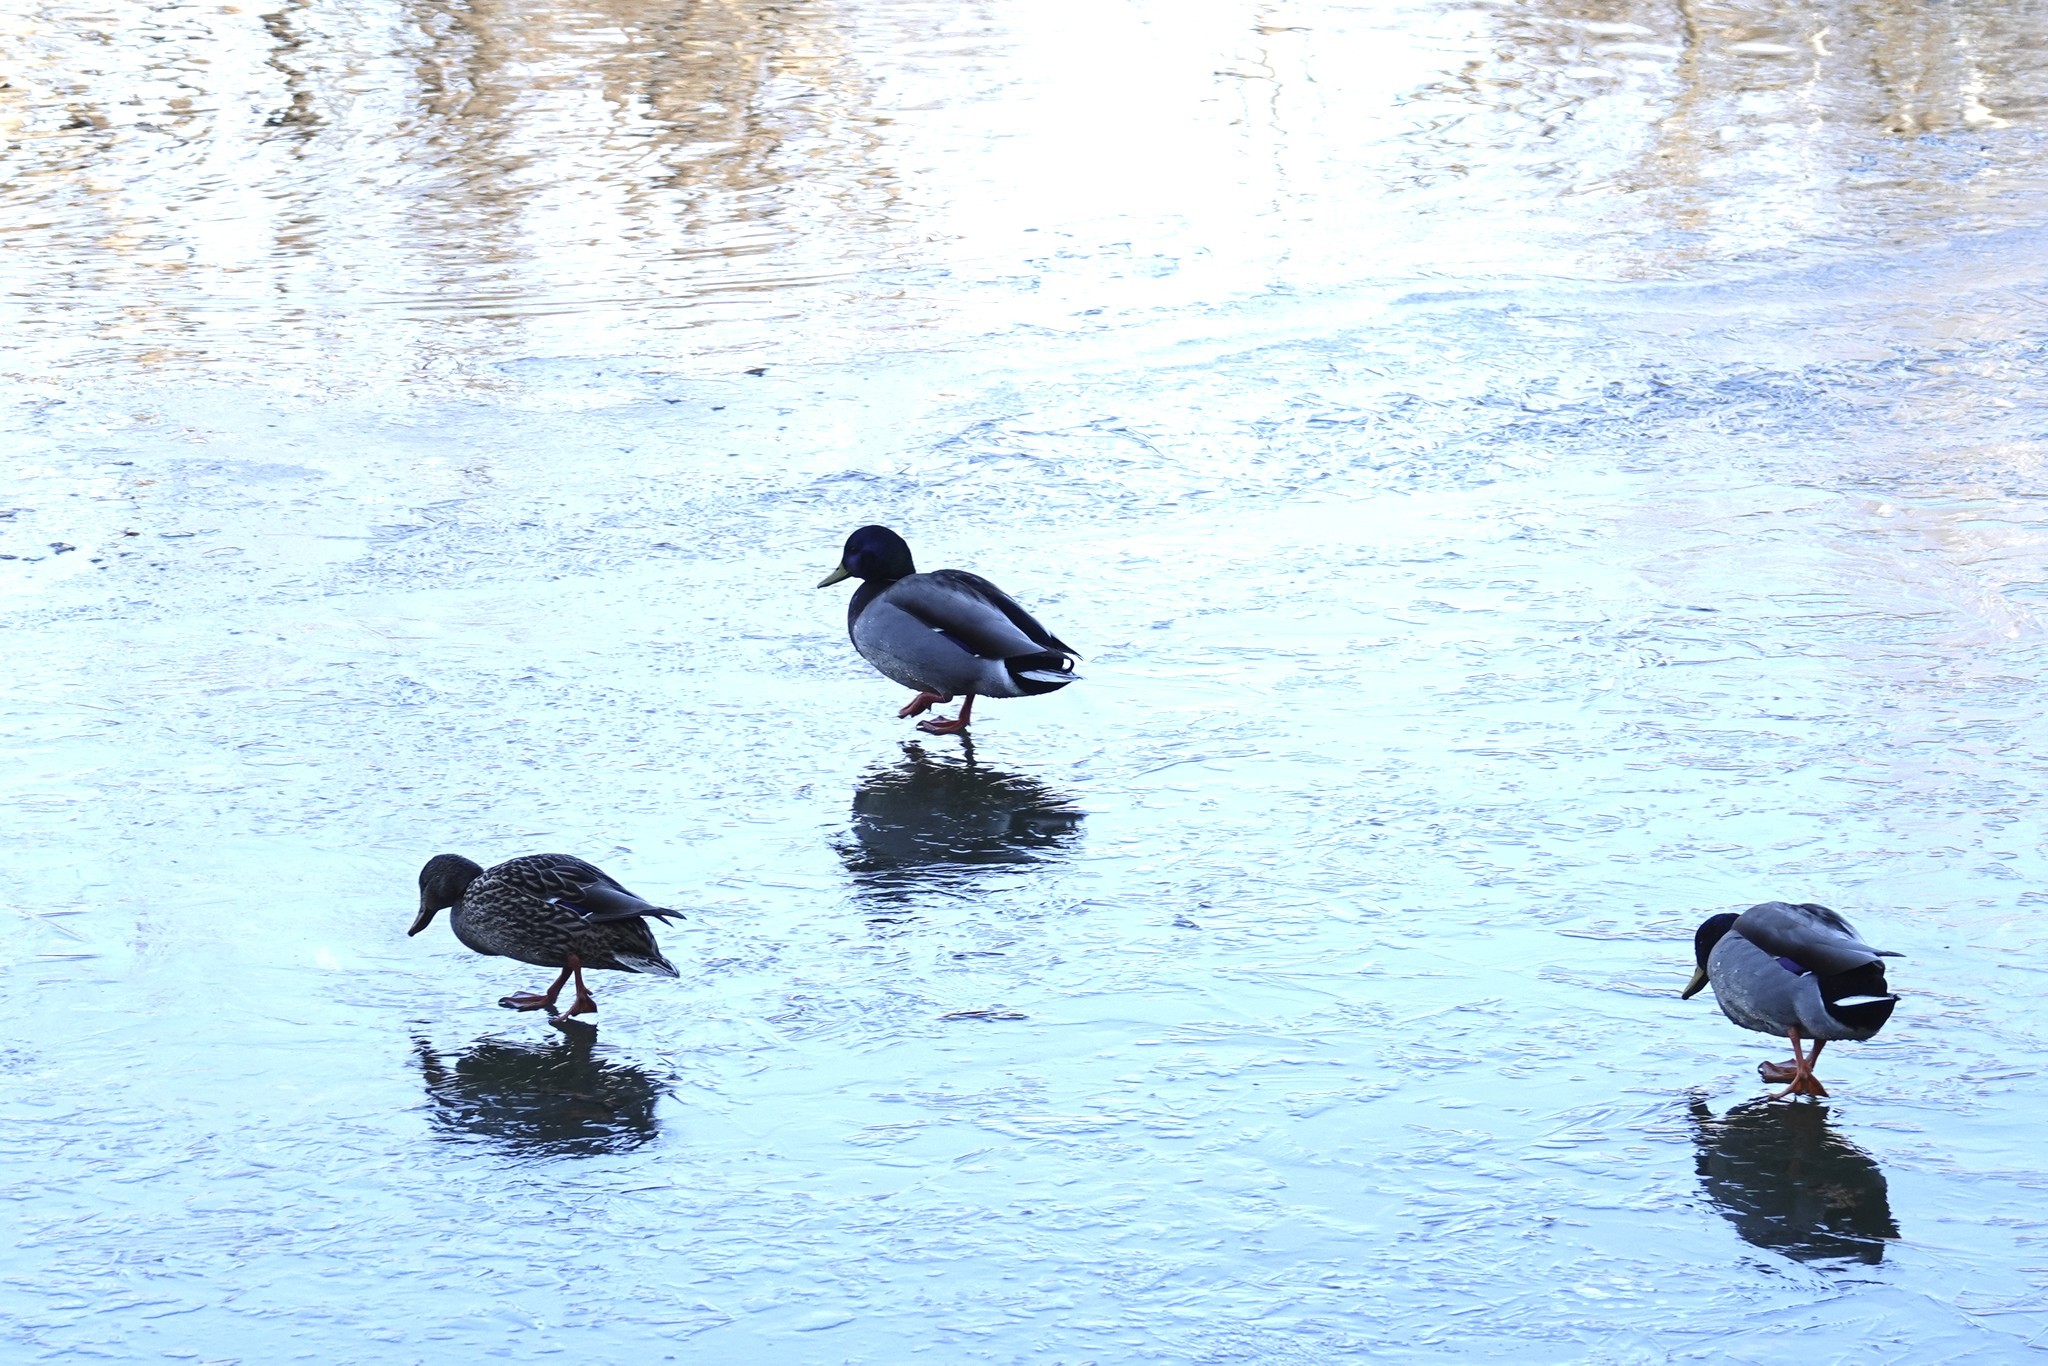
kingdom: Animalia
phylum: Chordata
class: Aves
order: Anseriformes
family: Anatidae
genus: Anas
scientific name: Anas platyrhynchos
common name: Mallard
